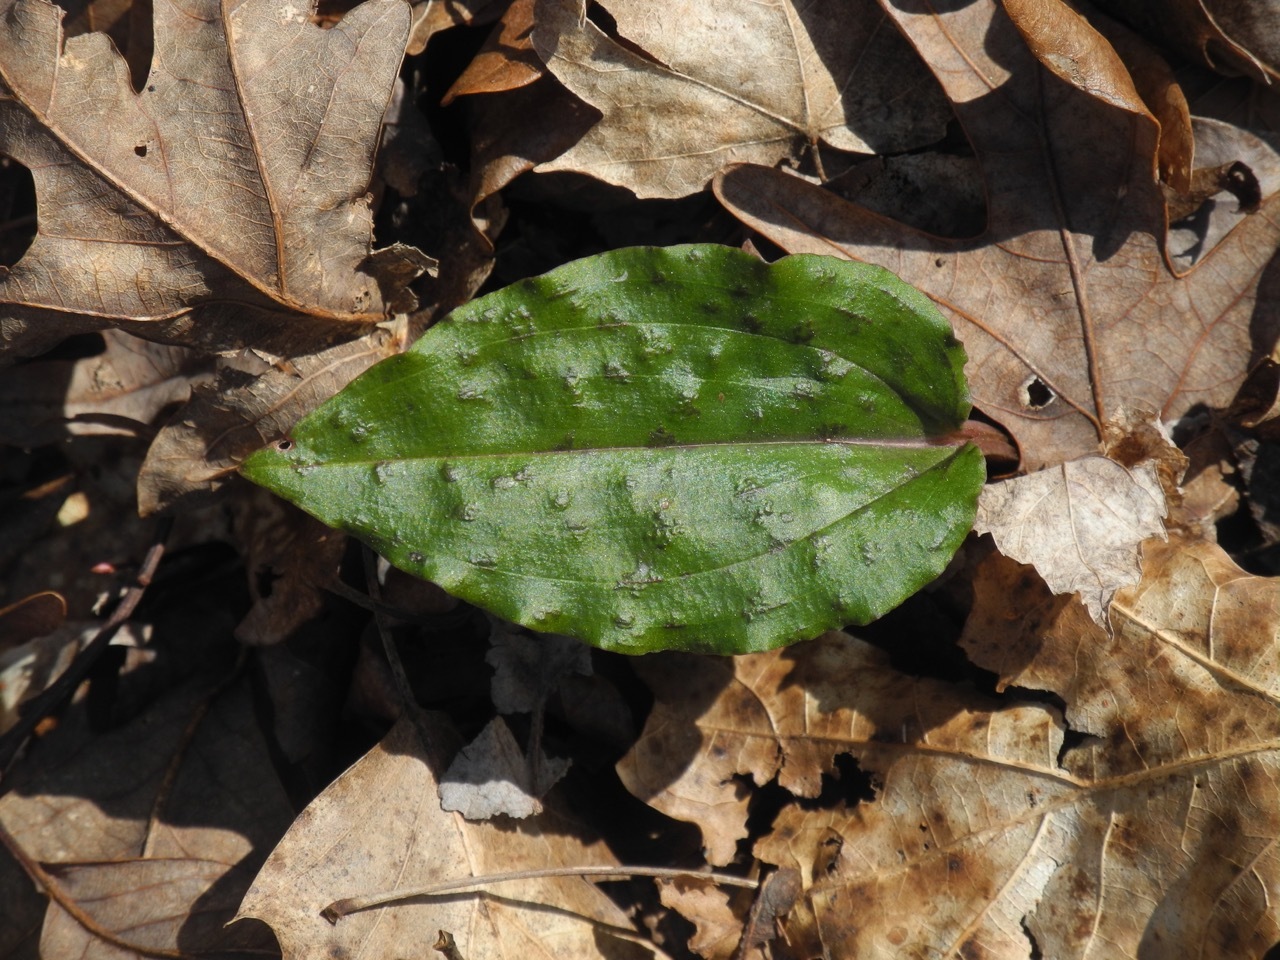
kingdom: Plantae
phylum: Tracheophyta
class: Liliopsida
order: Asparagales
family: Orchidaceae
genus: Tipularia
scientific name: Tipularia discolor
